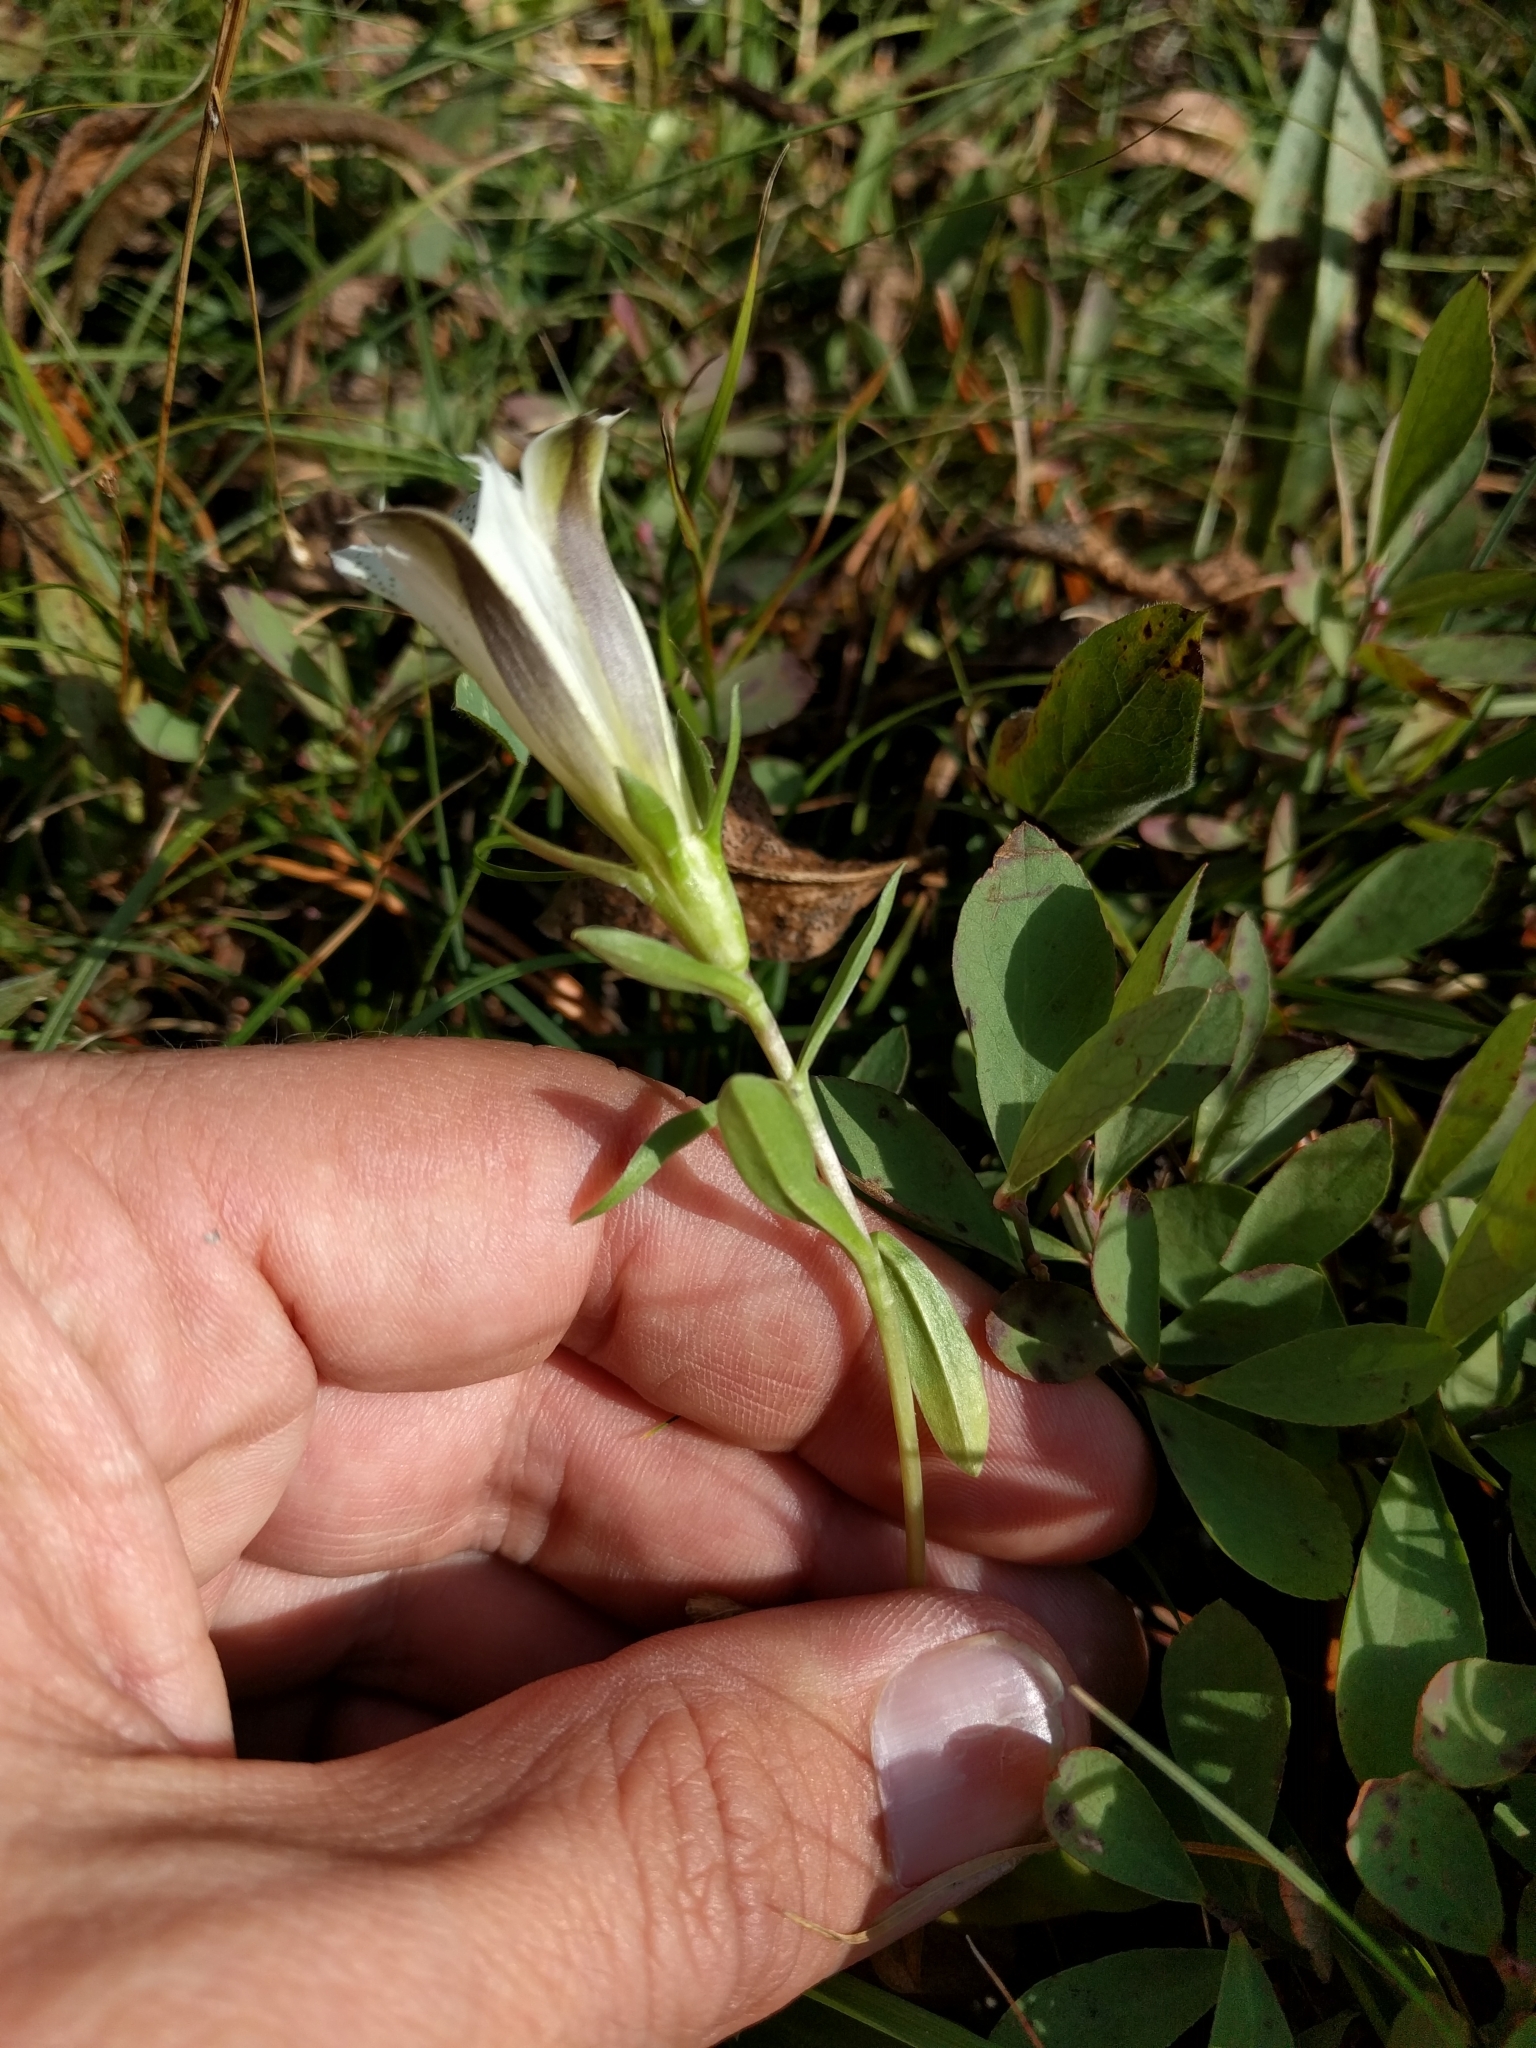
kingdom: Plantae
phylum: Tracheophyta
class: Magnoliopsida
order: Gentianales
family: Gentianaceae
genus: Gentiana
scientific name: Gentiana newberryi
